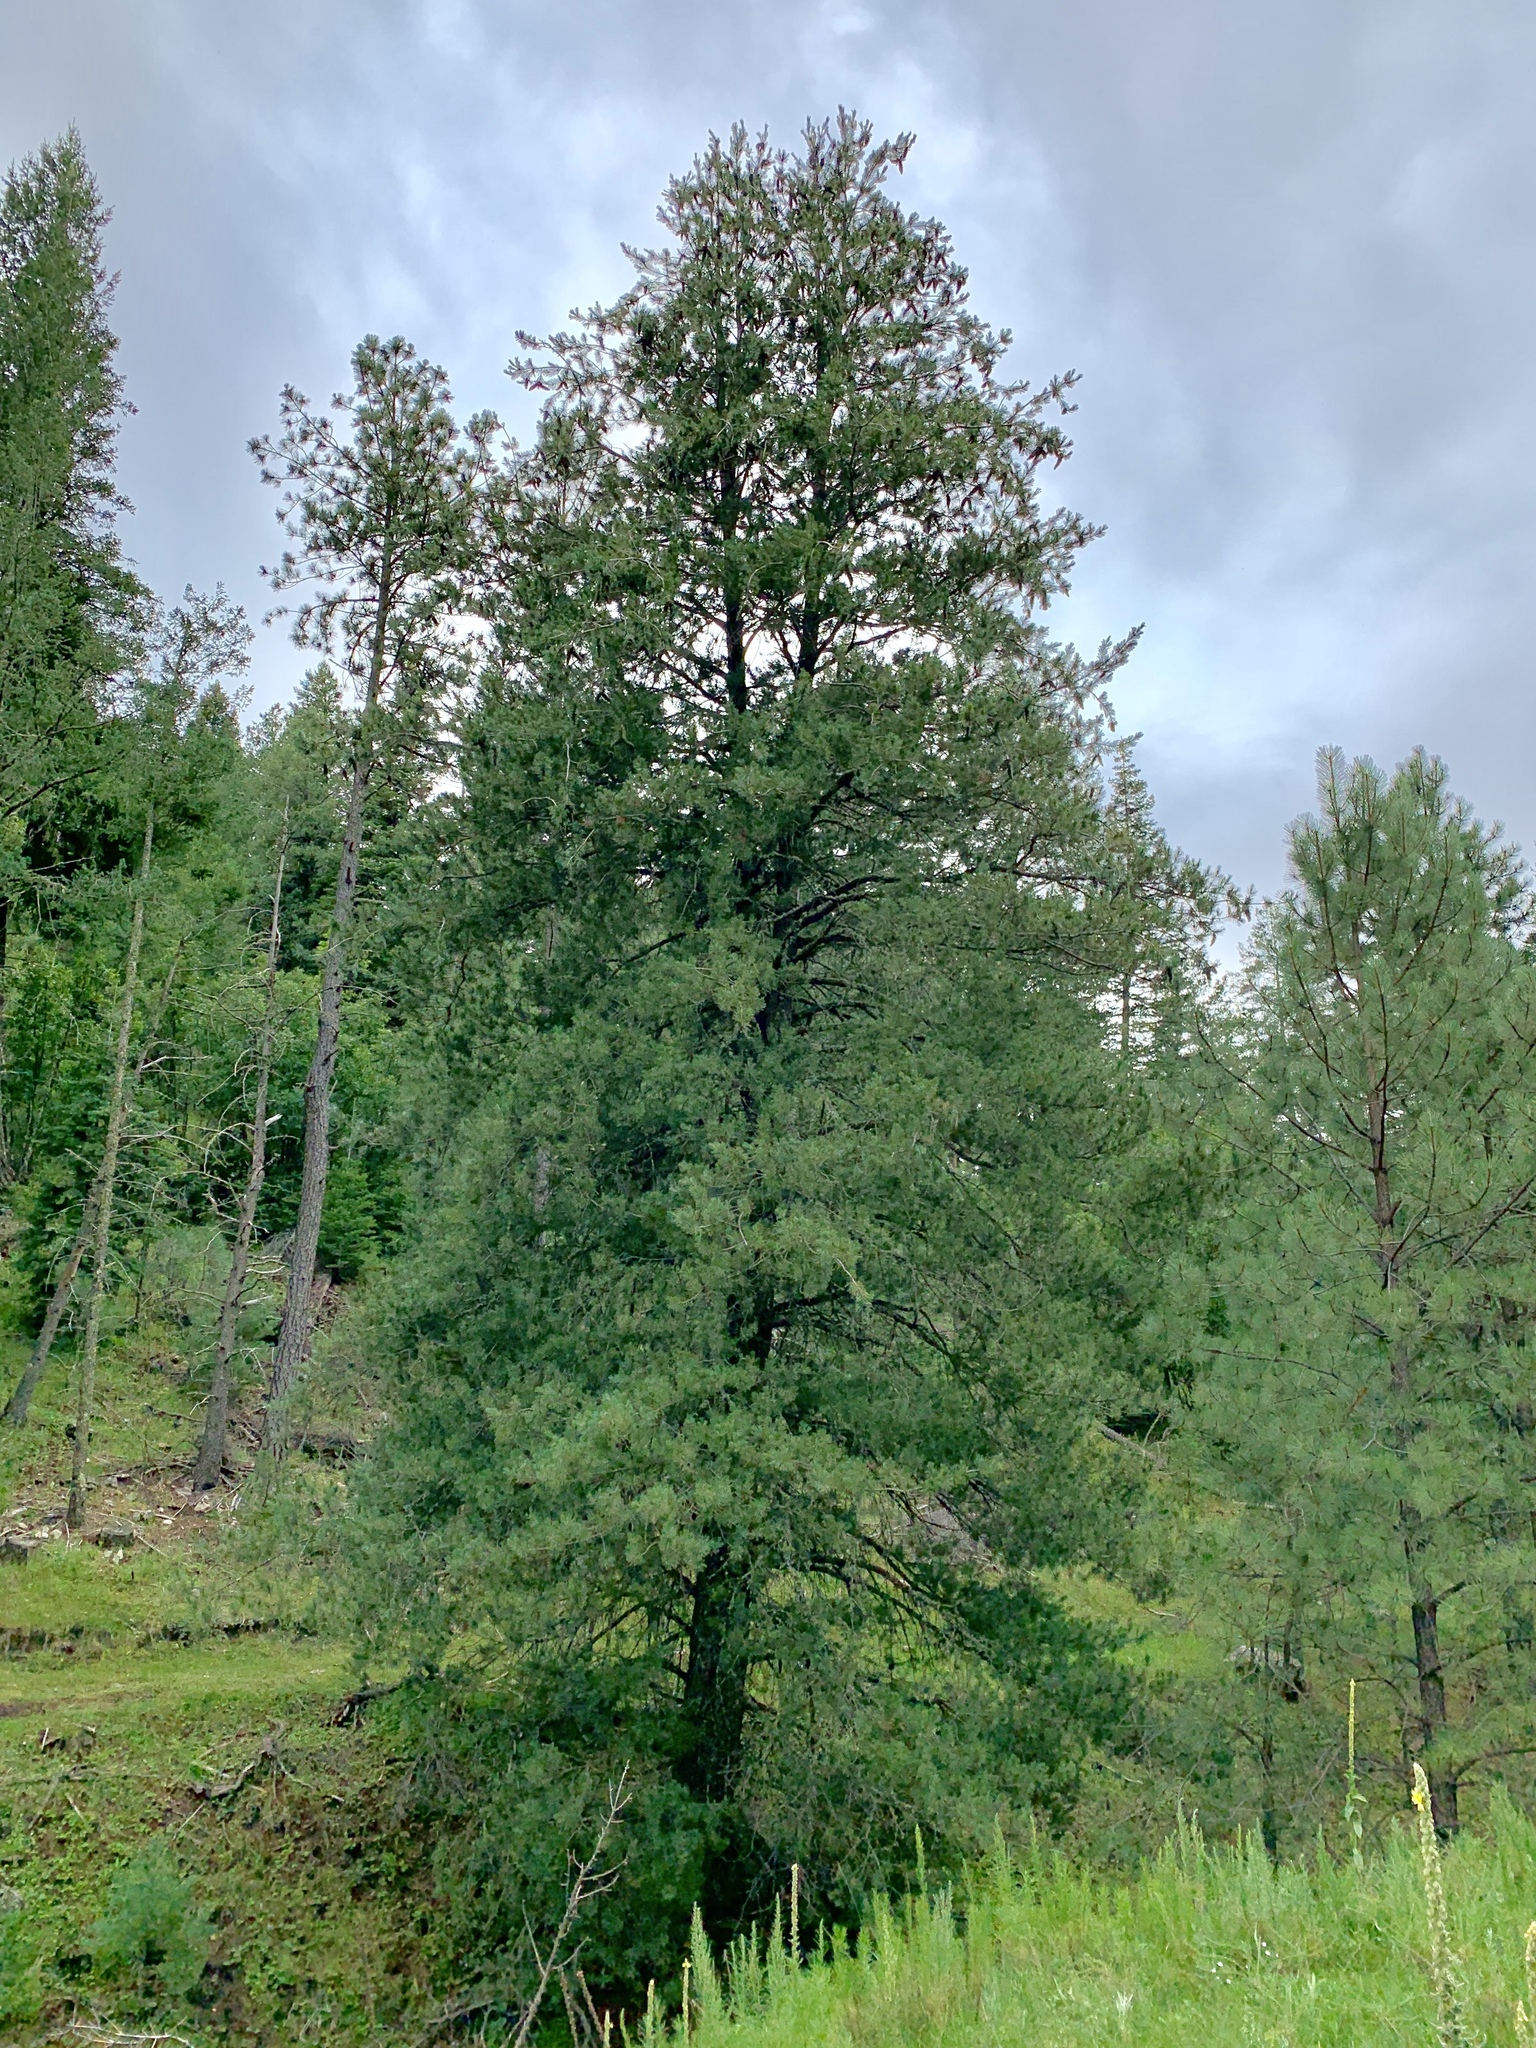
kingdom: Plantae
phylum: Tracheophyta
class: Pinopsida
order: Pinales
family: Pinaceae
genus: Pinus
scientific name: Pinus strobiformis
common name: Southwestern white pine
